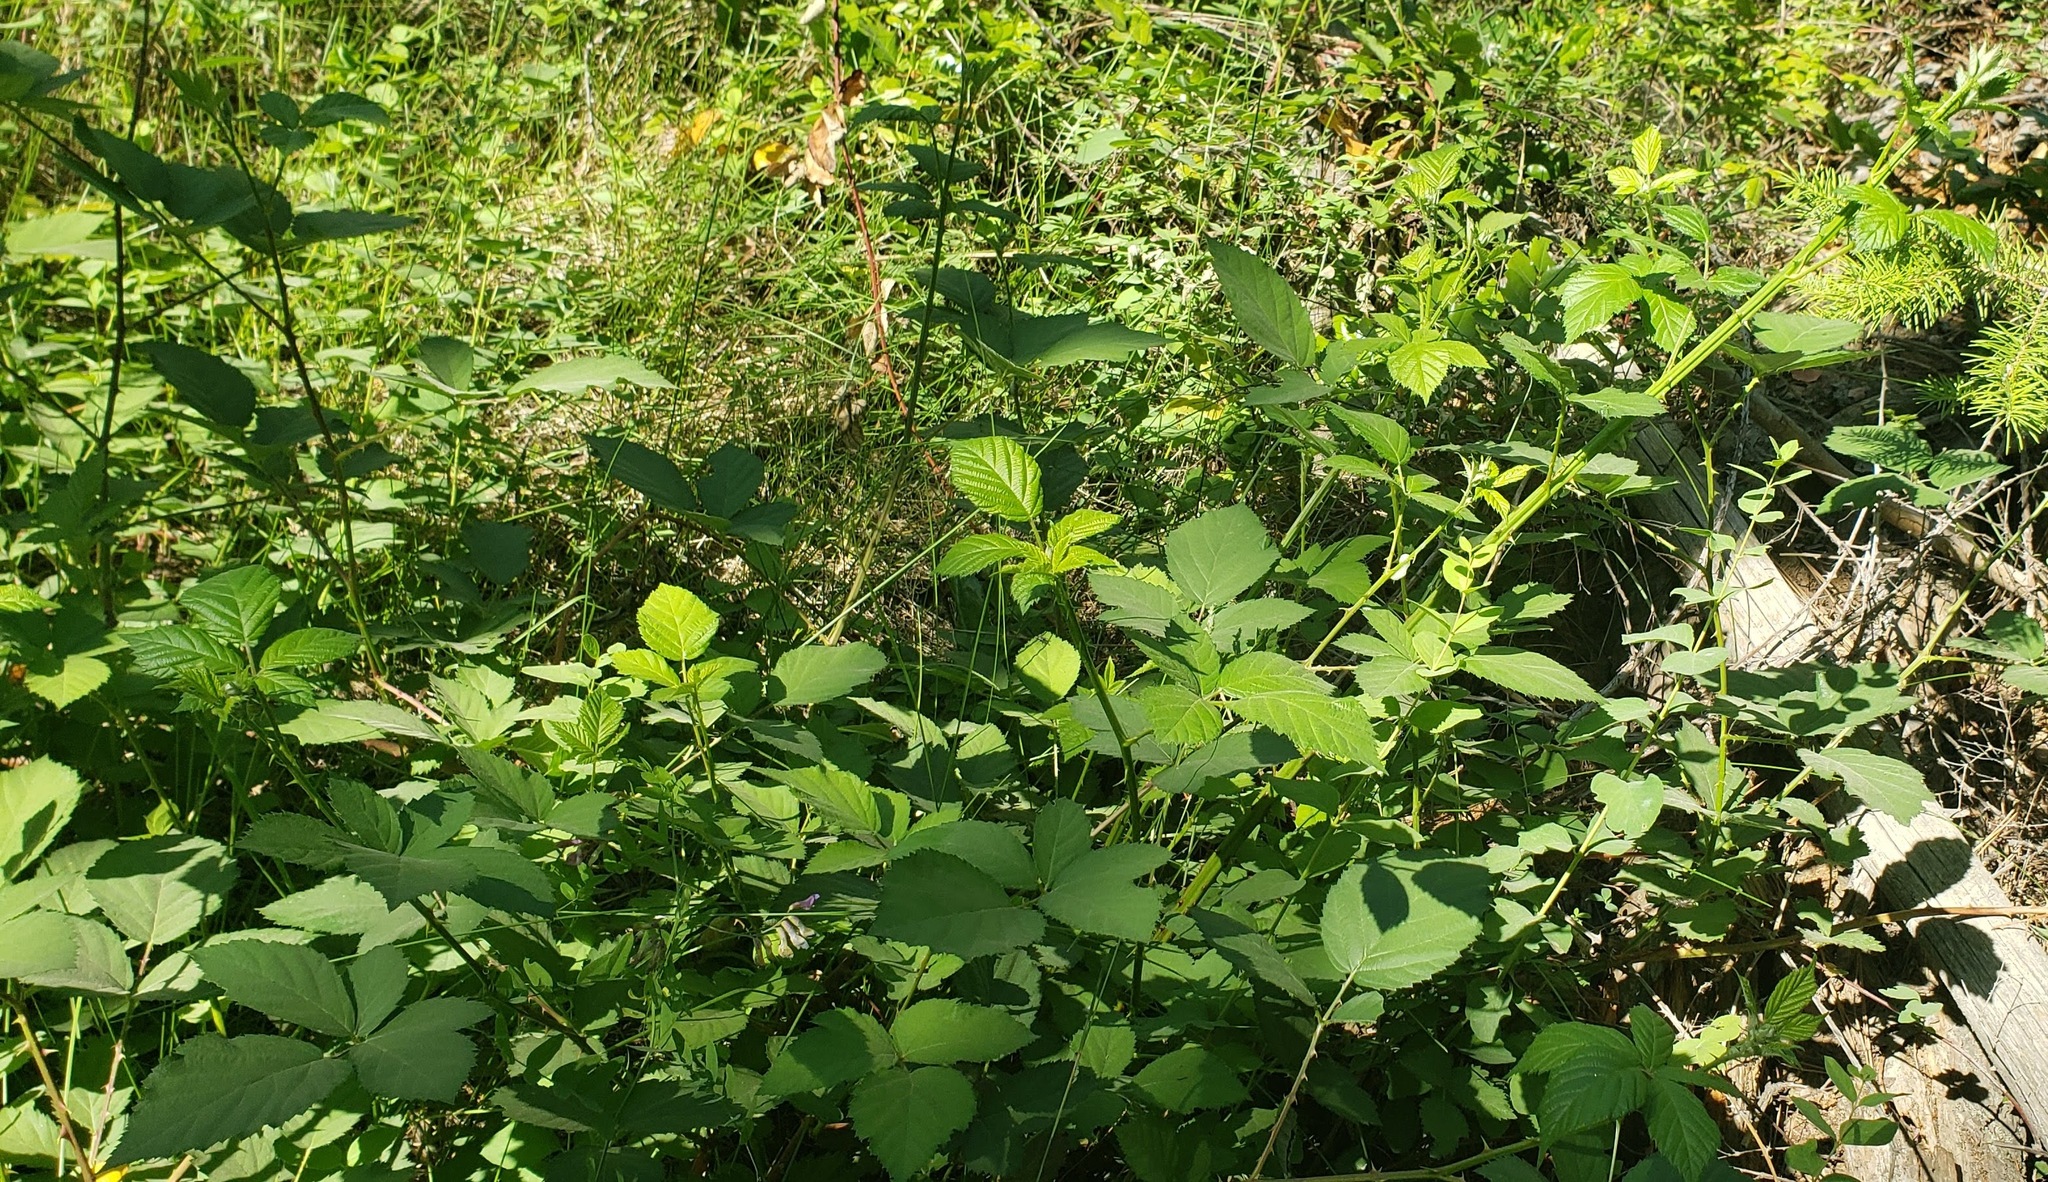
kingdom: Plantae
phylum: Tracheophyta
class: Magnoliopsida
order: Rosales
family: Rosaceae
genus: Rubus
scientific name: Rubus armeniacus
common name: Himalayan blackberry
